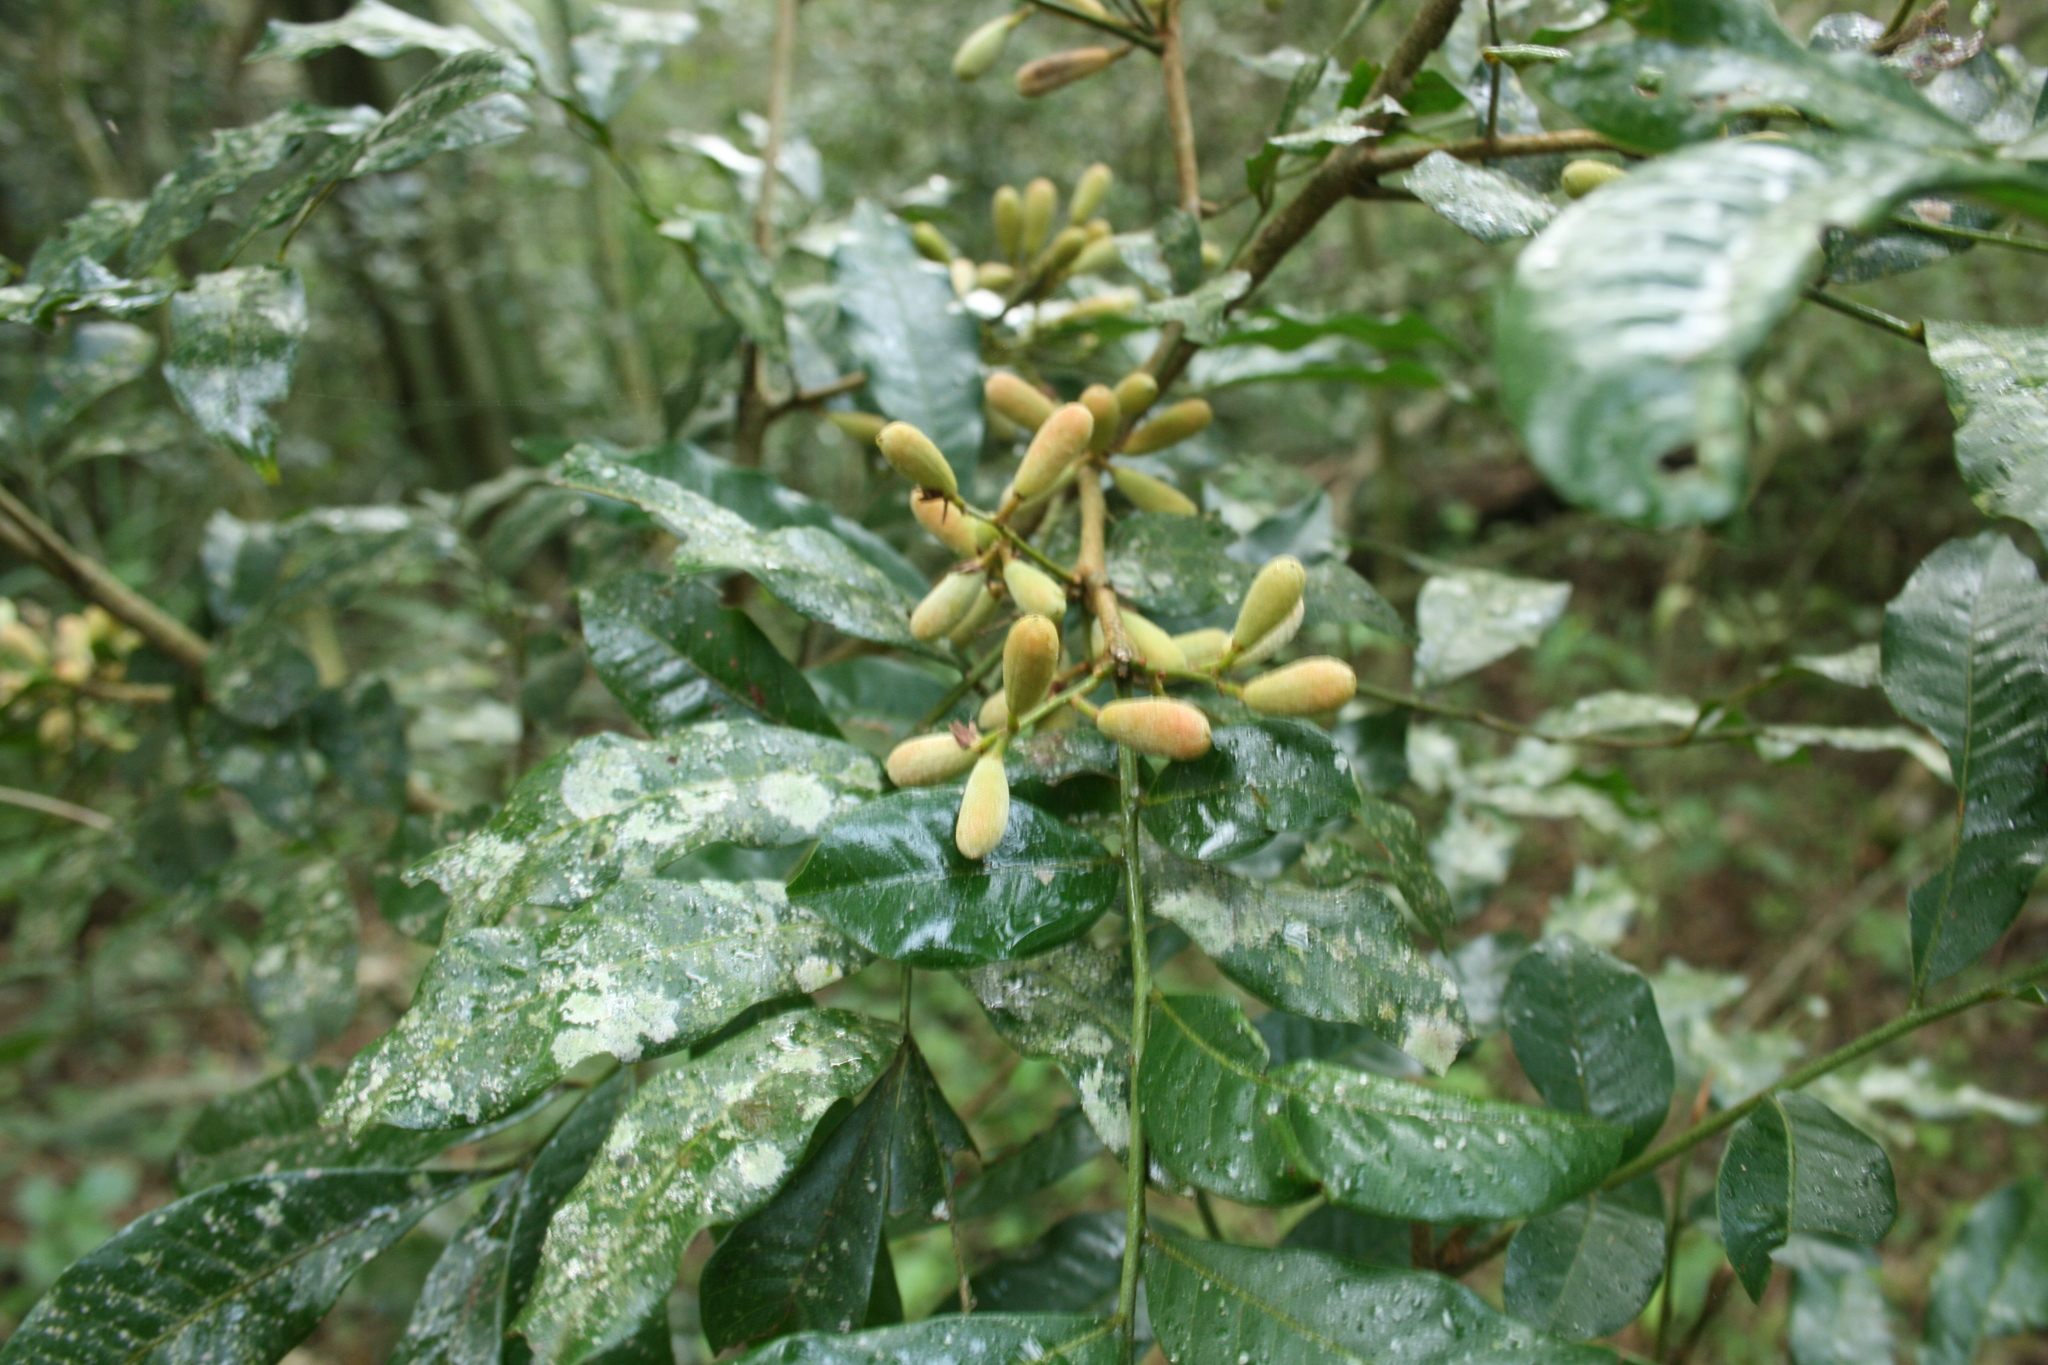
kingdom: Plantae
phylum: Tracheophyta
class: Magnoliopsida
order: Sapindales
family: Meliaceae
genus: Trichilia
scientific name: Trichilia catigua
